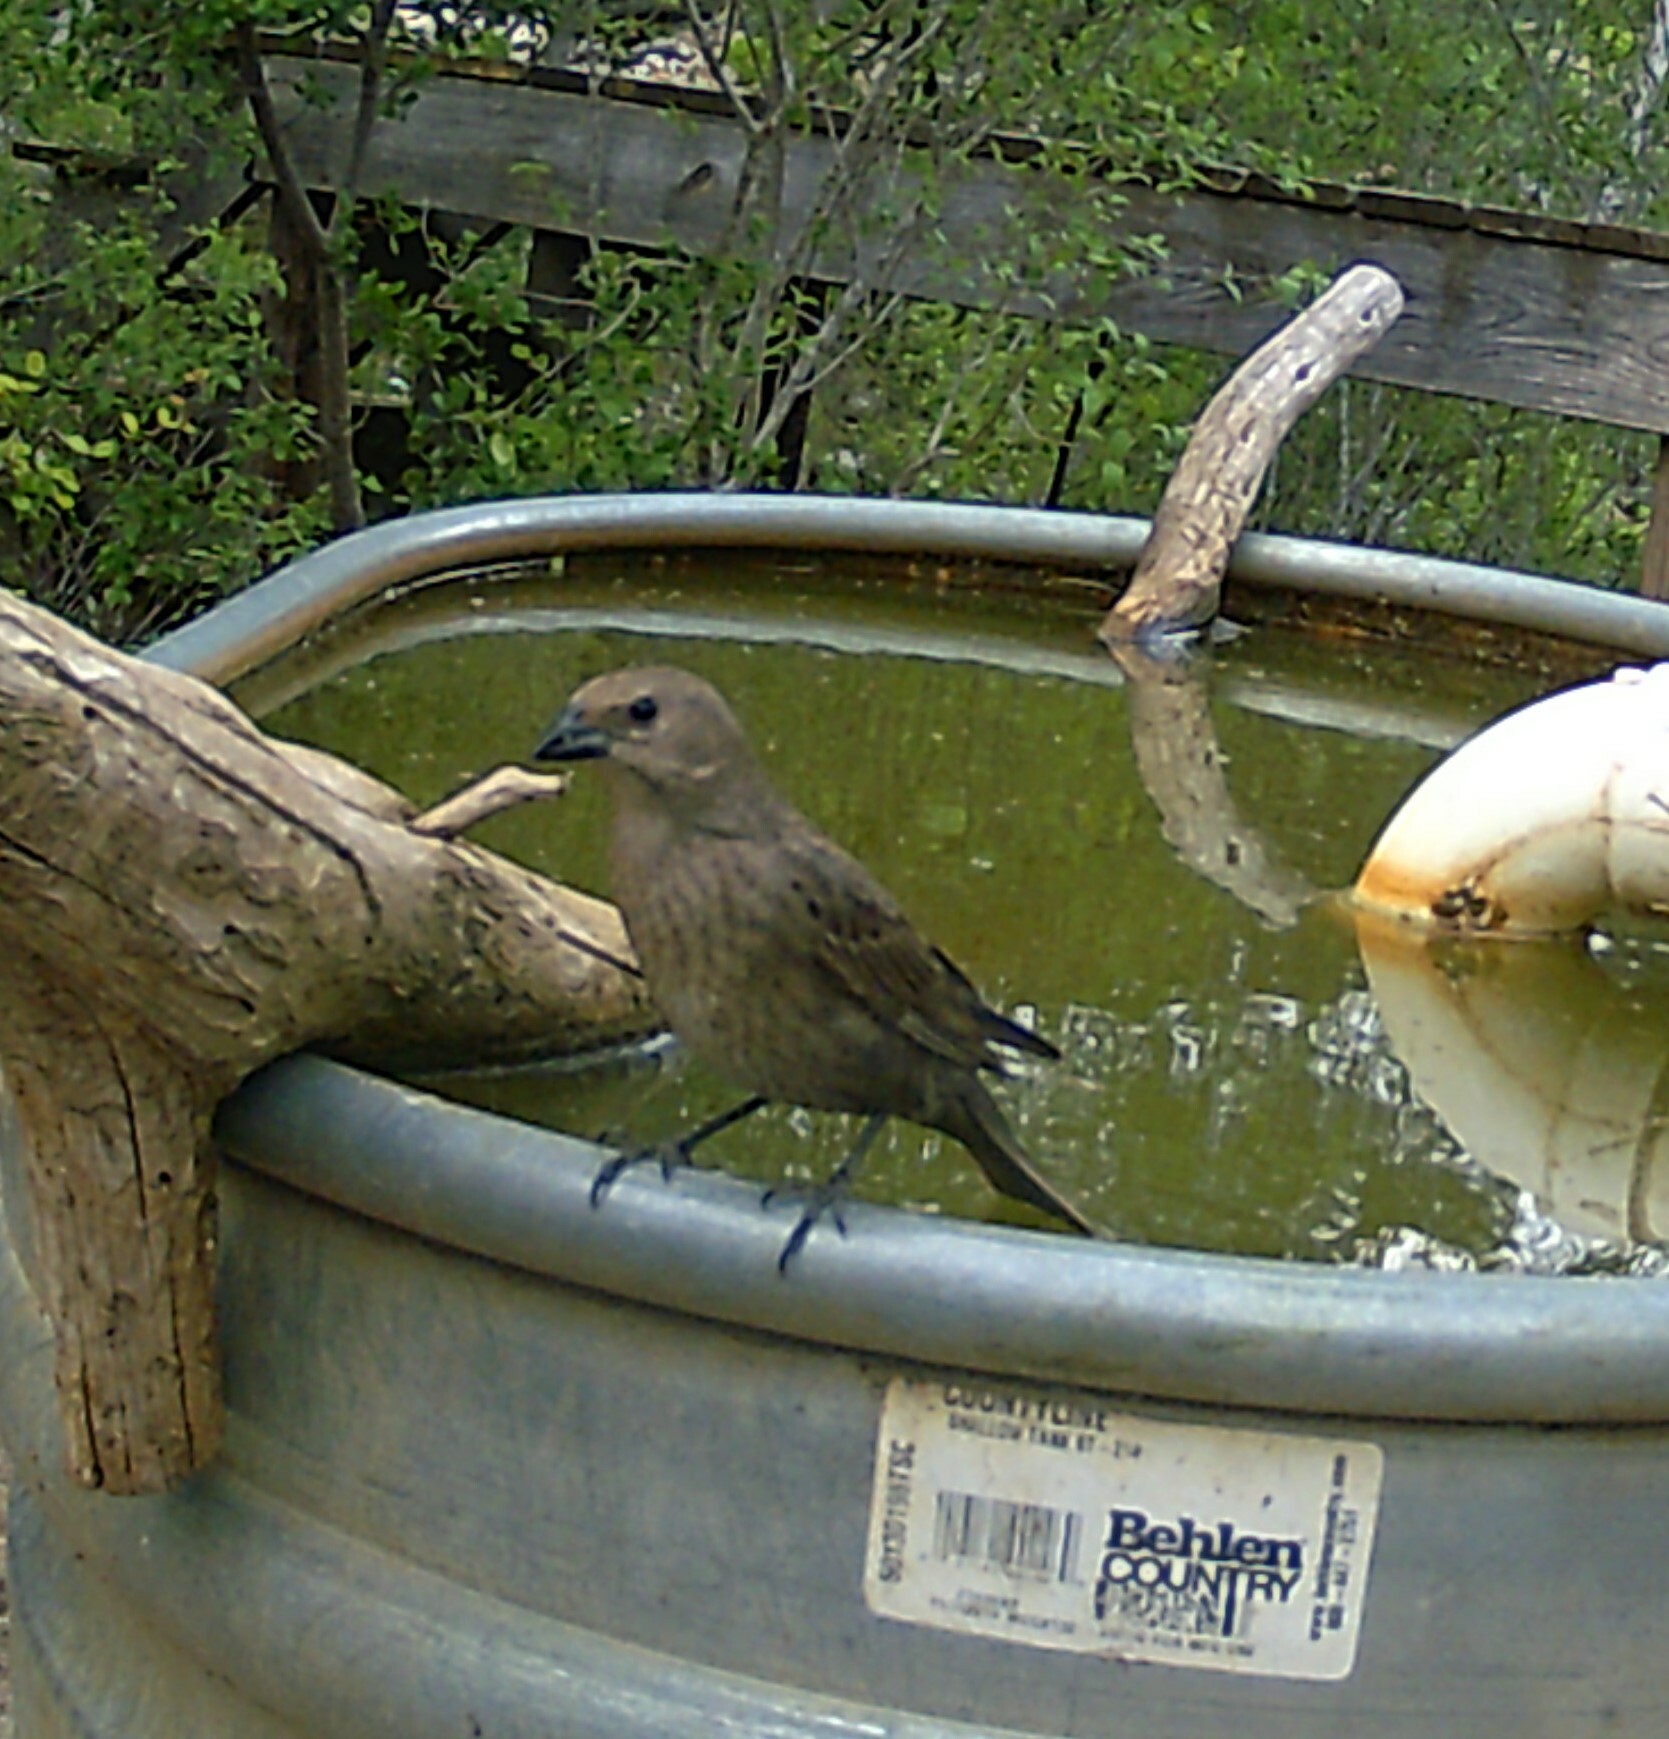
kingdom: Animalia
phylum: Chordata
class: Aves
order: Passeriformes
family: Icteridae
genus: Molothrus
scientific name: Molothrus ater
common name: Brown-headed cowbird
